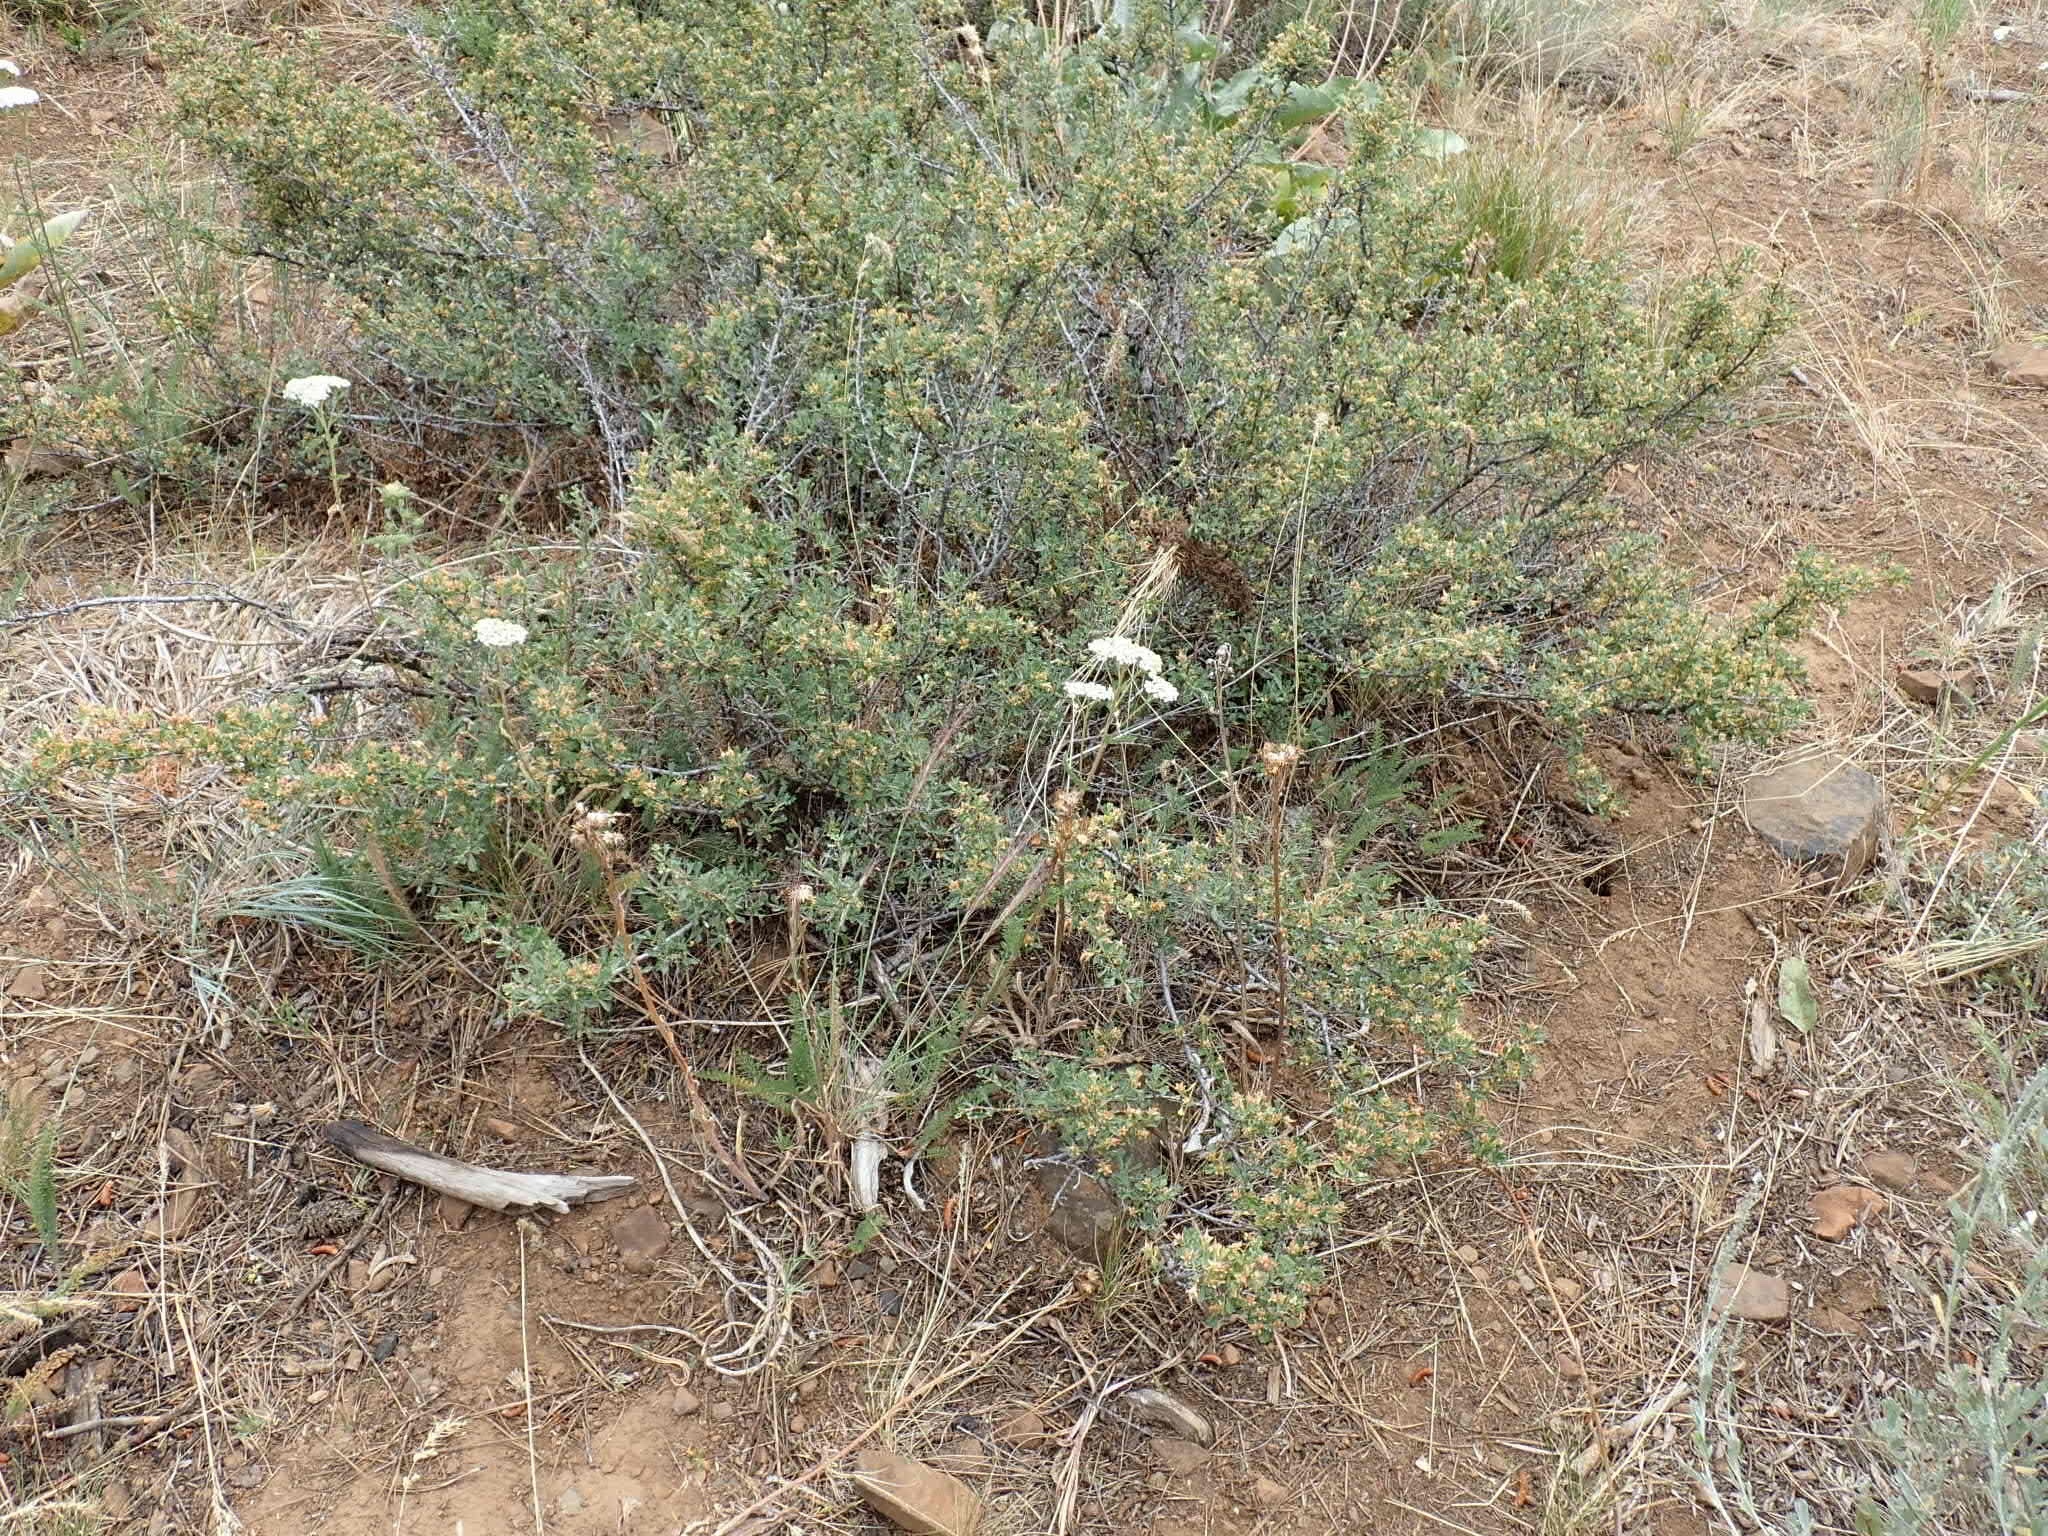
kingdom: Plantae
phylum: Tracheophyta
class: Magnoliopsida
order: Rosales
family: Rosaceae
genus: Purshia
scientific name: Purshia tridentata
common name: Antelope bitterbrush
